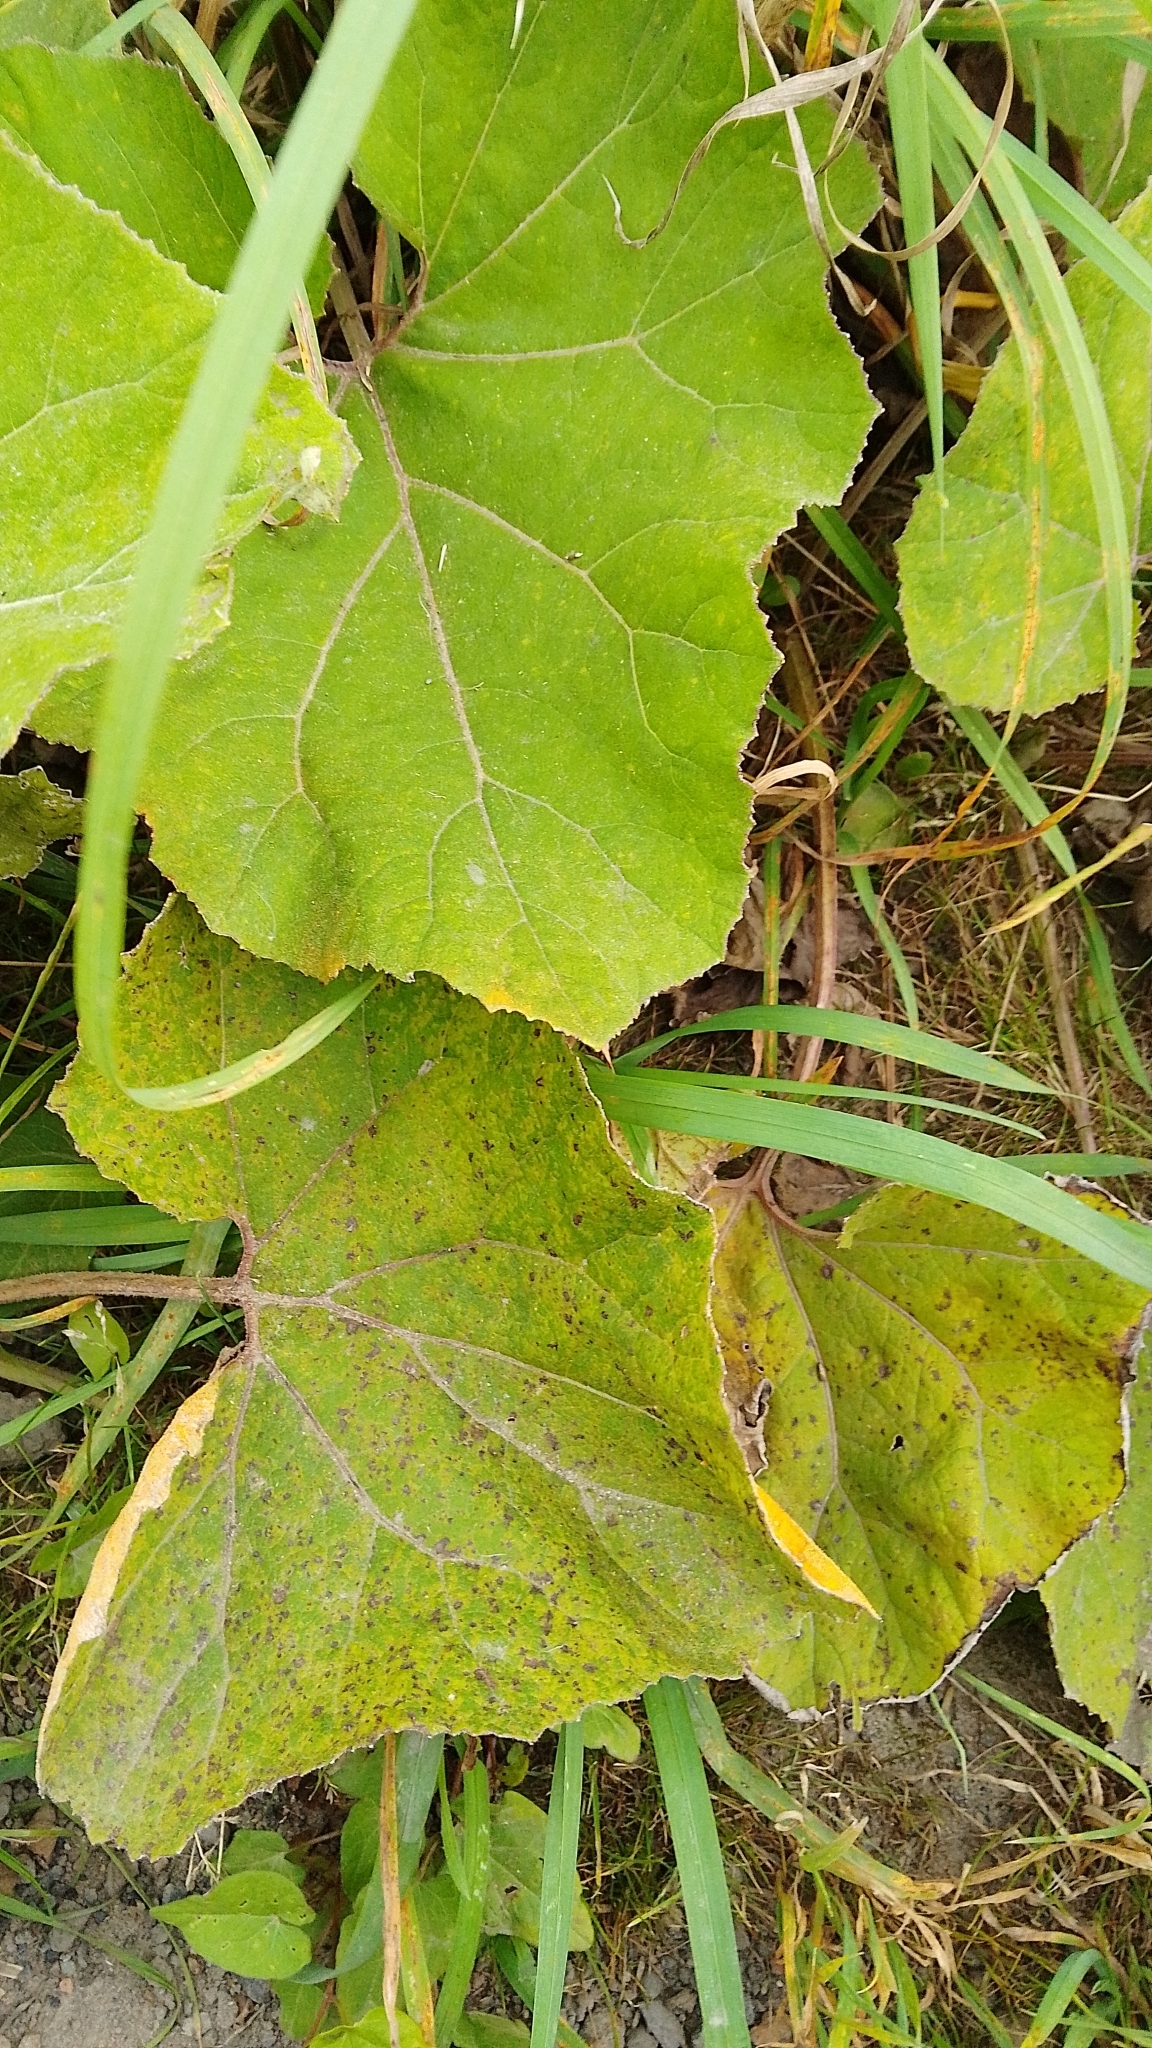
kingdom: Plantae
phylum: Tracheophyta
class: Magnoliopsida
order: Asterales
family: Asteraceae
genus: Petasites
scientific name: Petasites hybridus
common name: Butterbur
